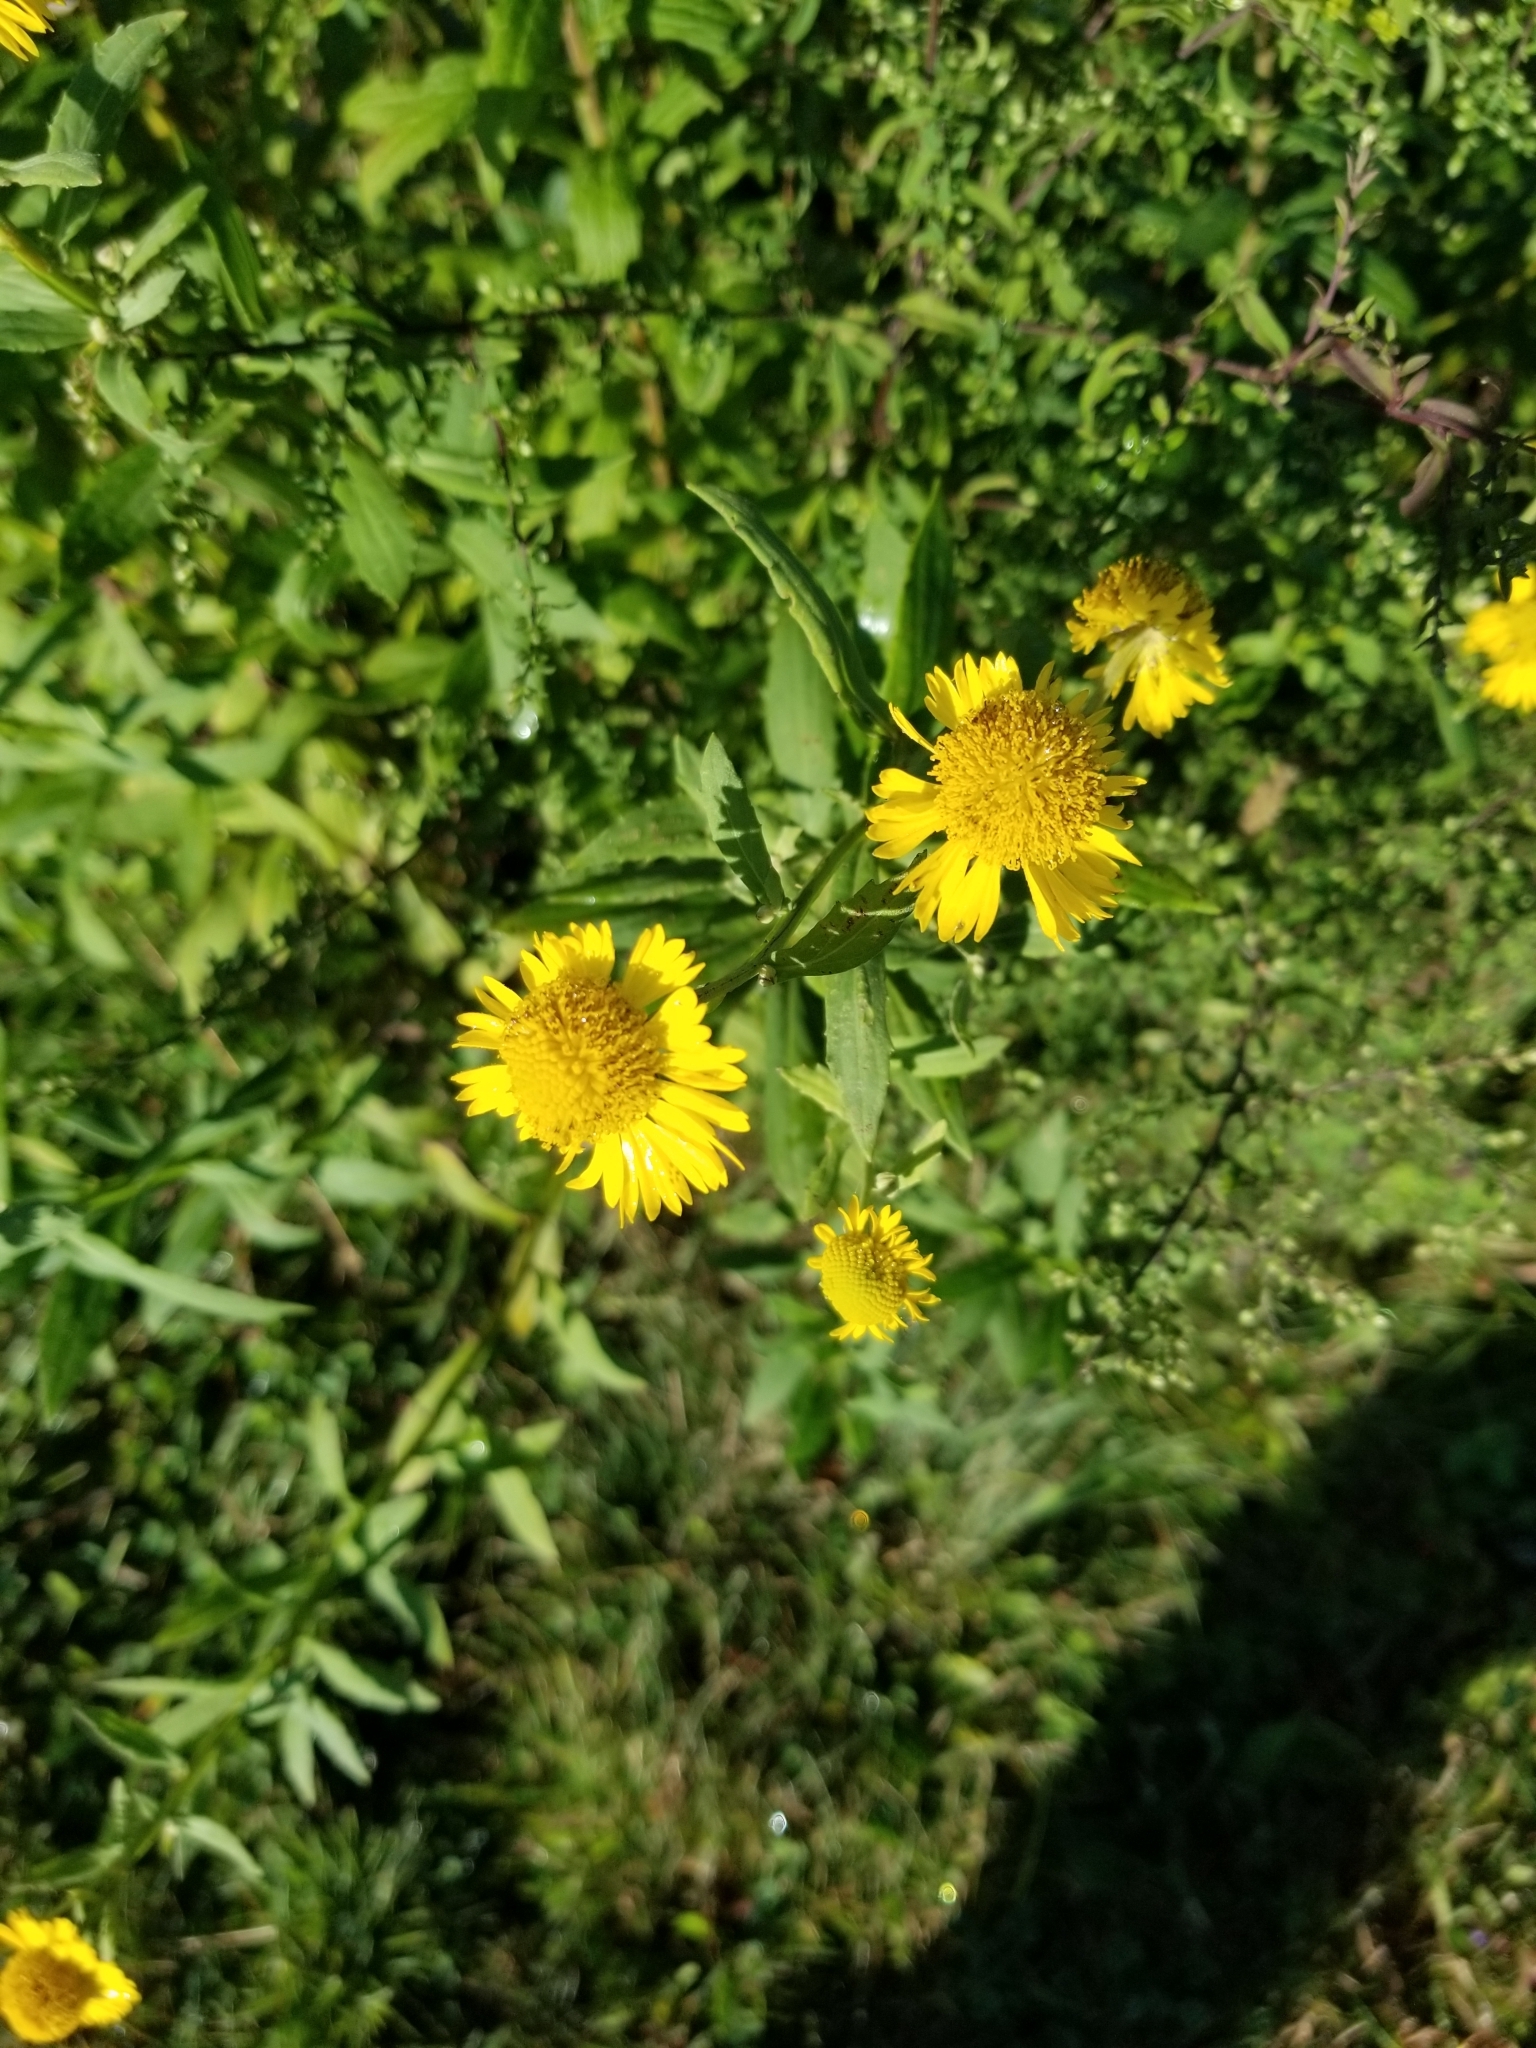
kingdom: Plantae
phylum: Tracheophyta
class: Magnoliopsida
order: Asterales
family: Asteraceae
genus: Helenium
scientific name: Helenium autumnale
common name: Sneezeweed
